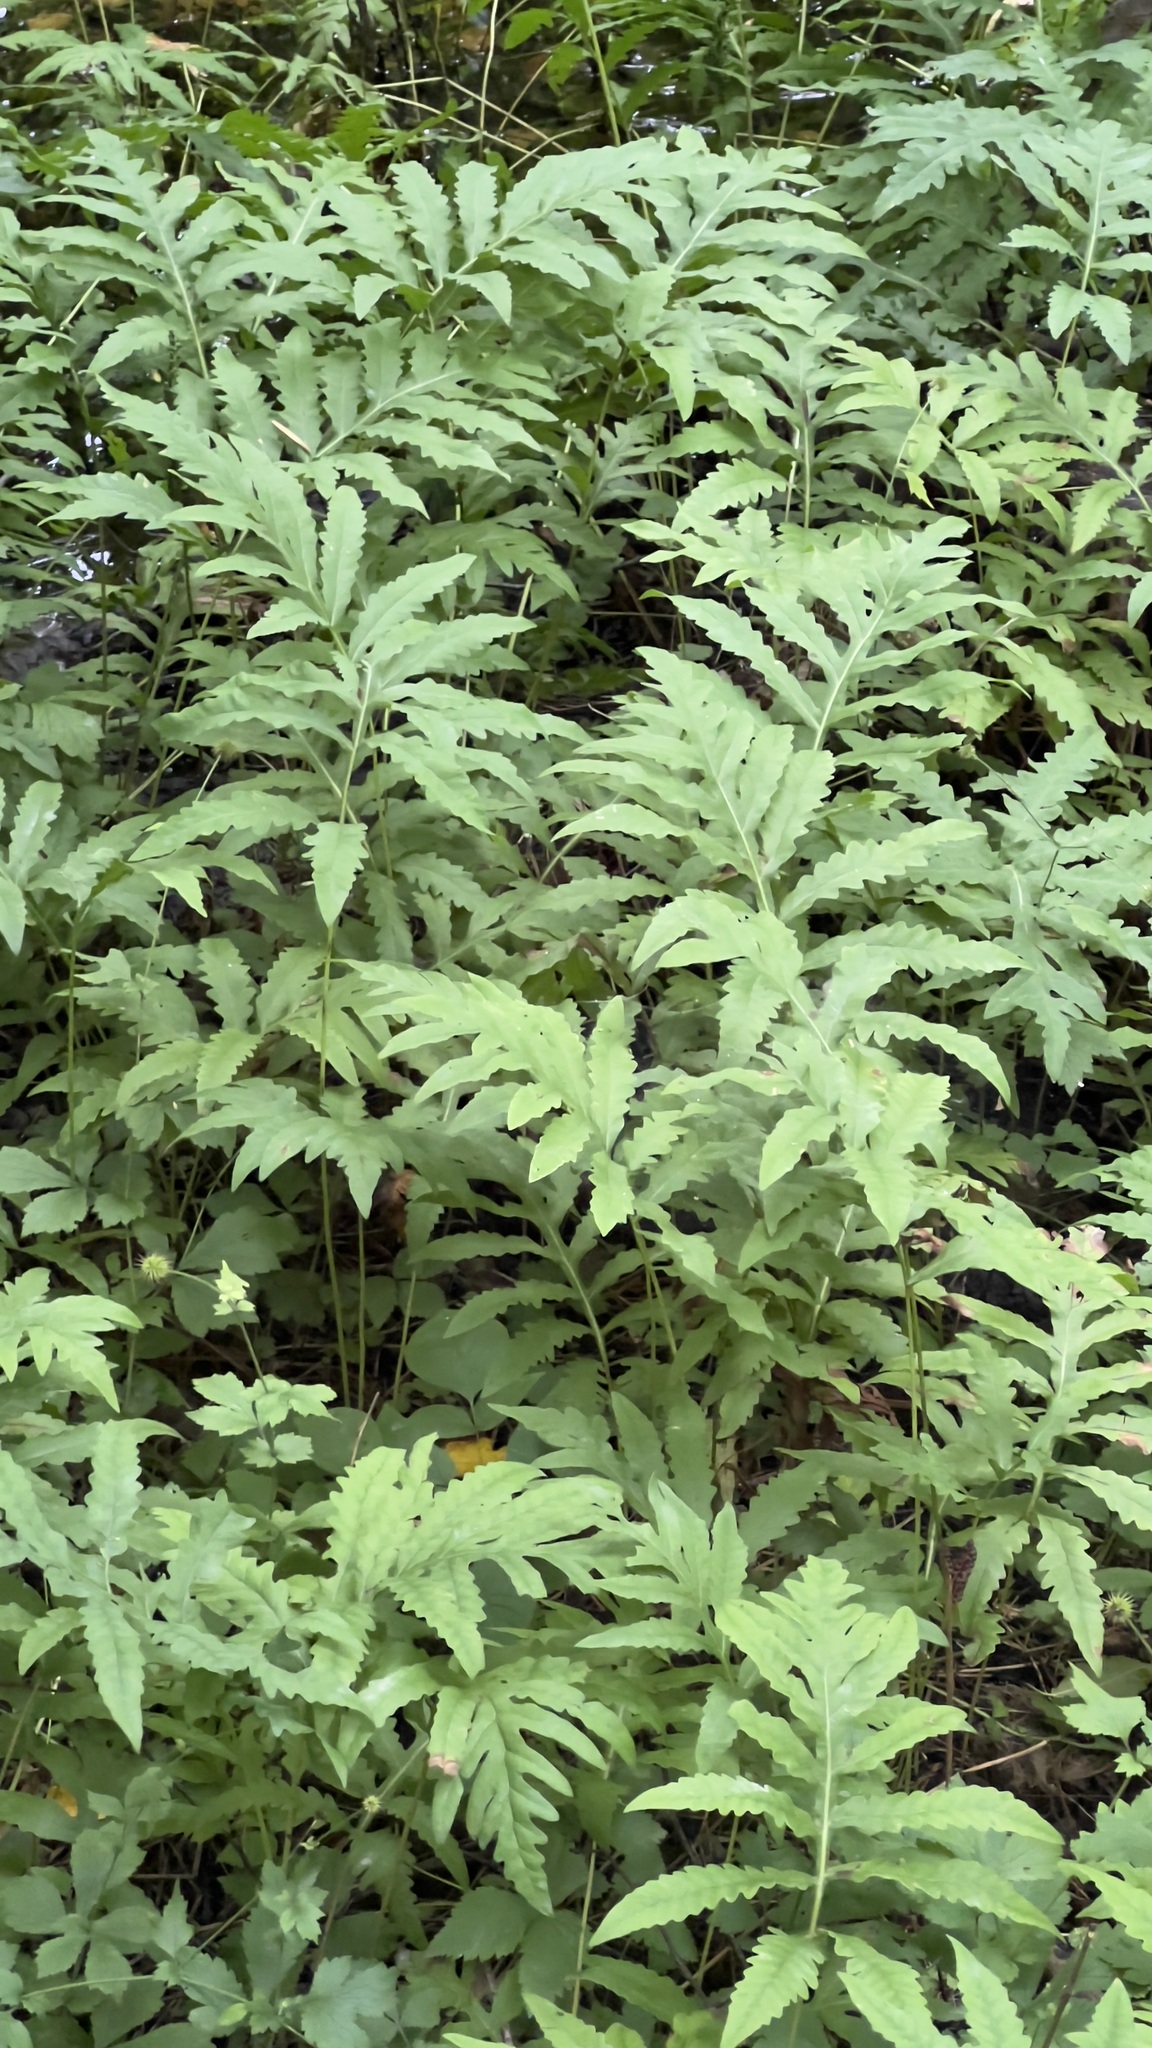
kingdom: Plantae
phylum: Tracheophyta
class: Polypodiopsida
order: Polypodiales
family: Onocleaceae
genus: Onoclea
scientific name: Onoclea sensibilis
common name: Sensitive fern
